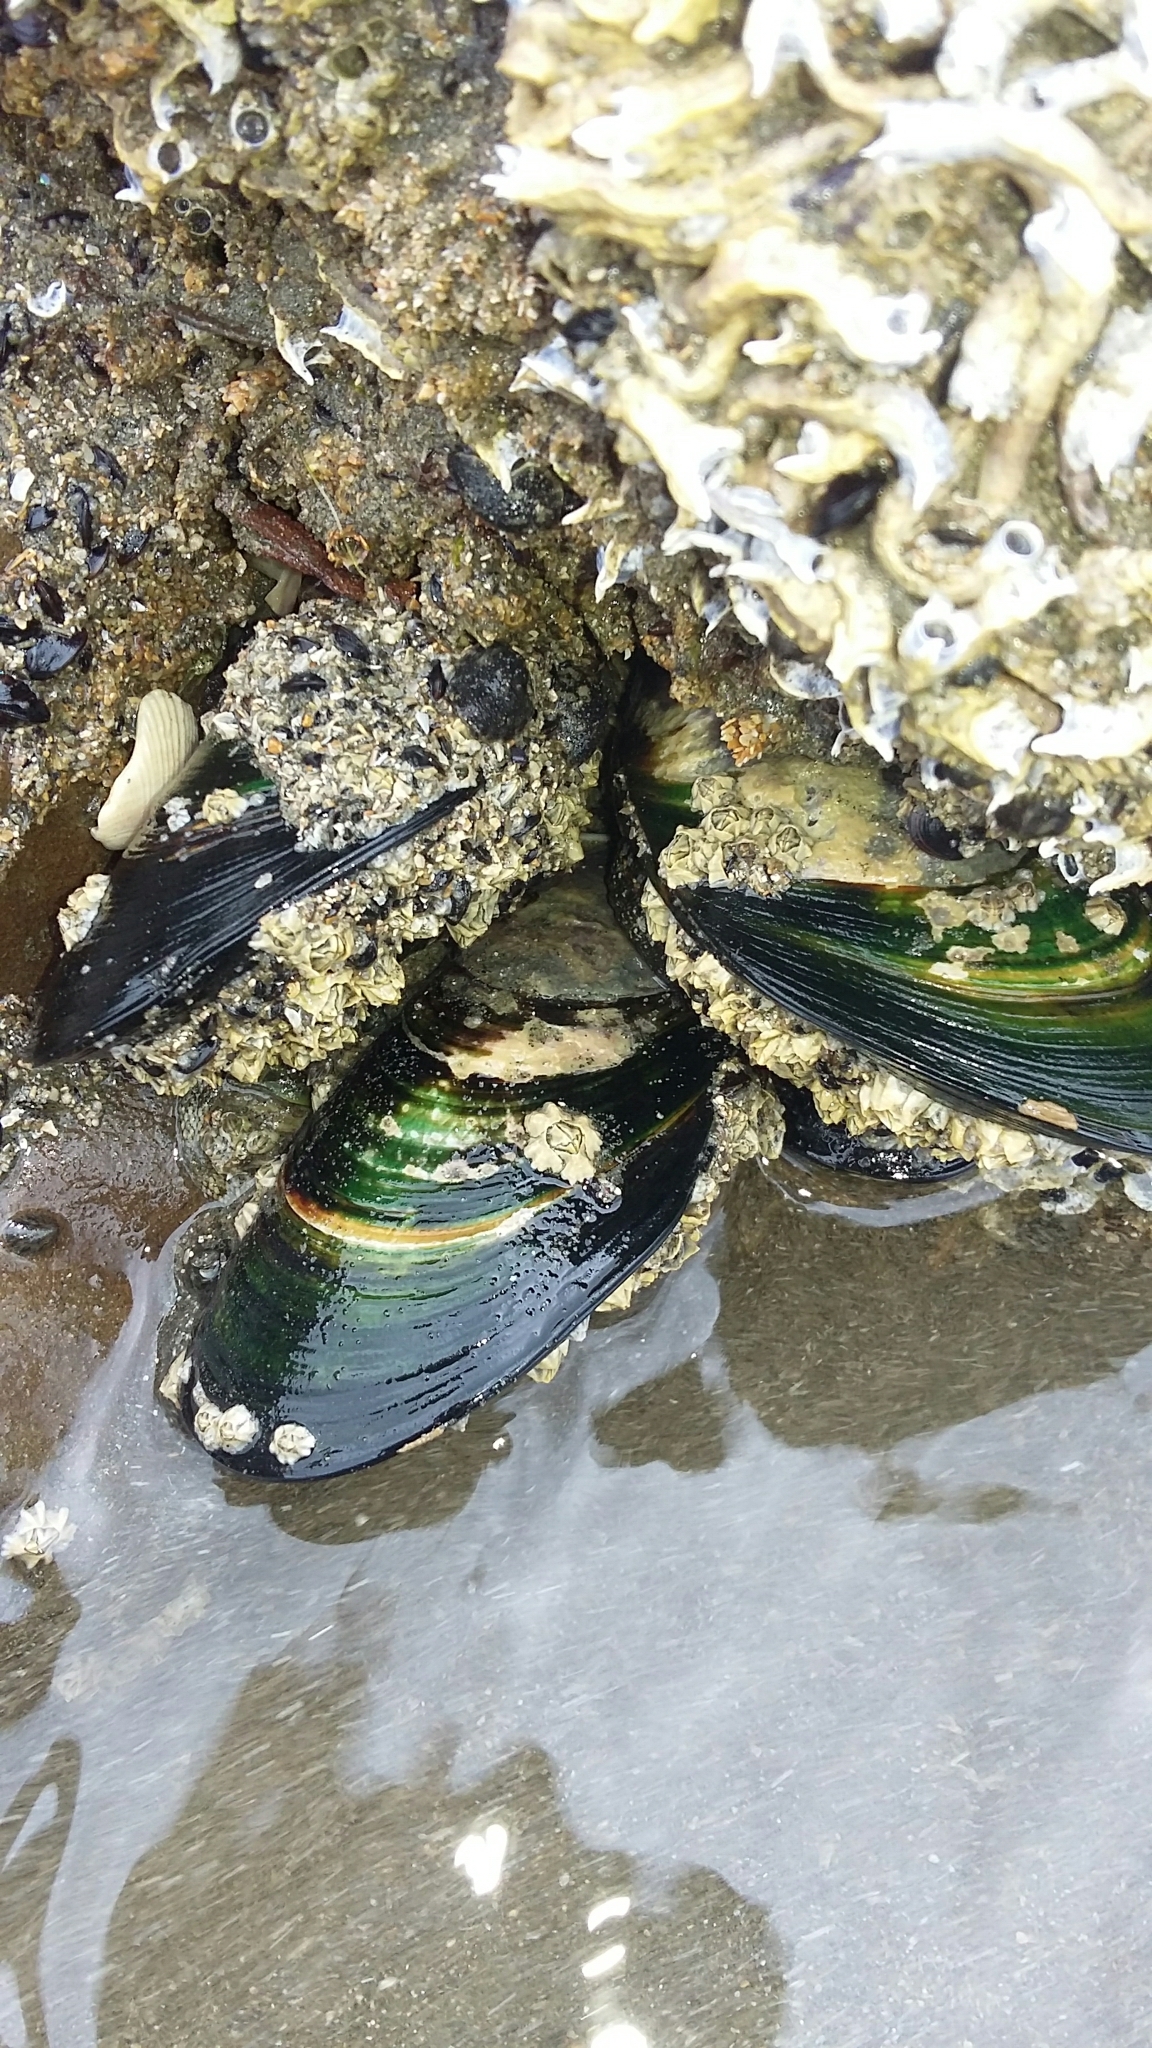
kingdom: Animalia
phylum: Mollusca
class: Bivalvia
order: Mytilida
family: Mytilidae
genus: Perna
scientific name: Perna canaliculus
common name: New zealand greenshelltm
